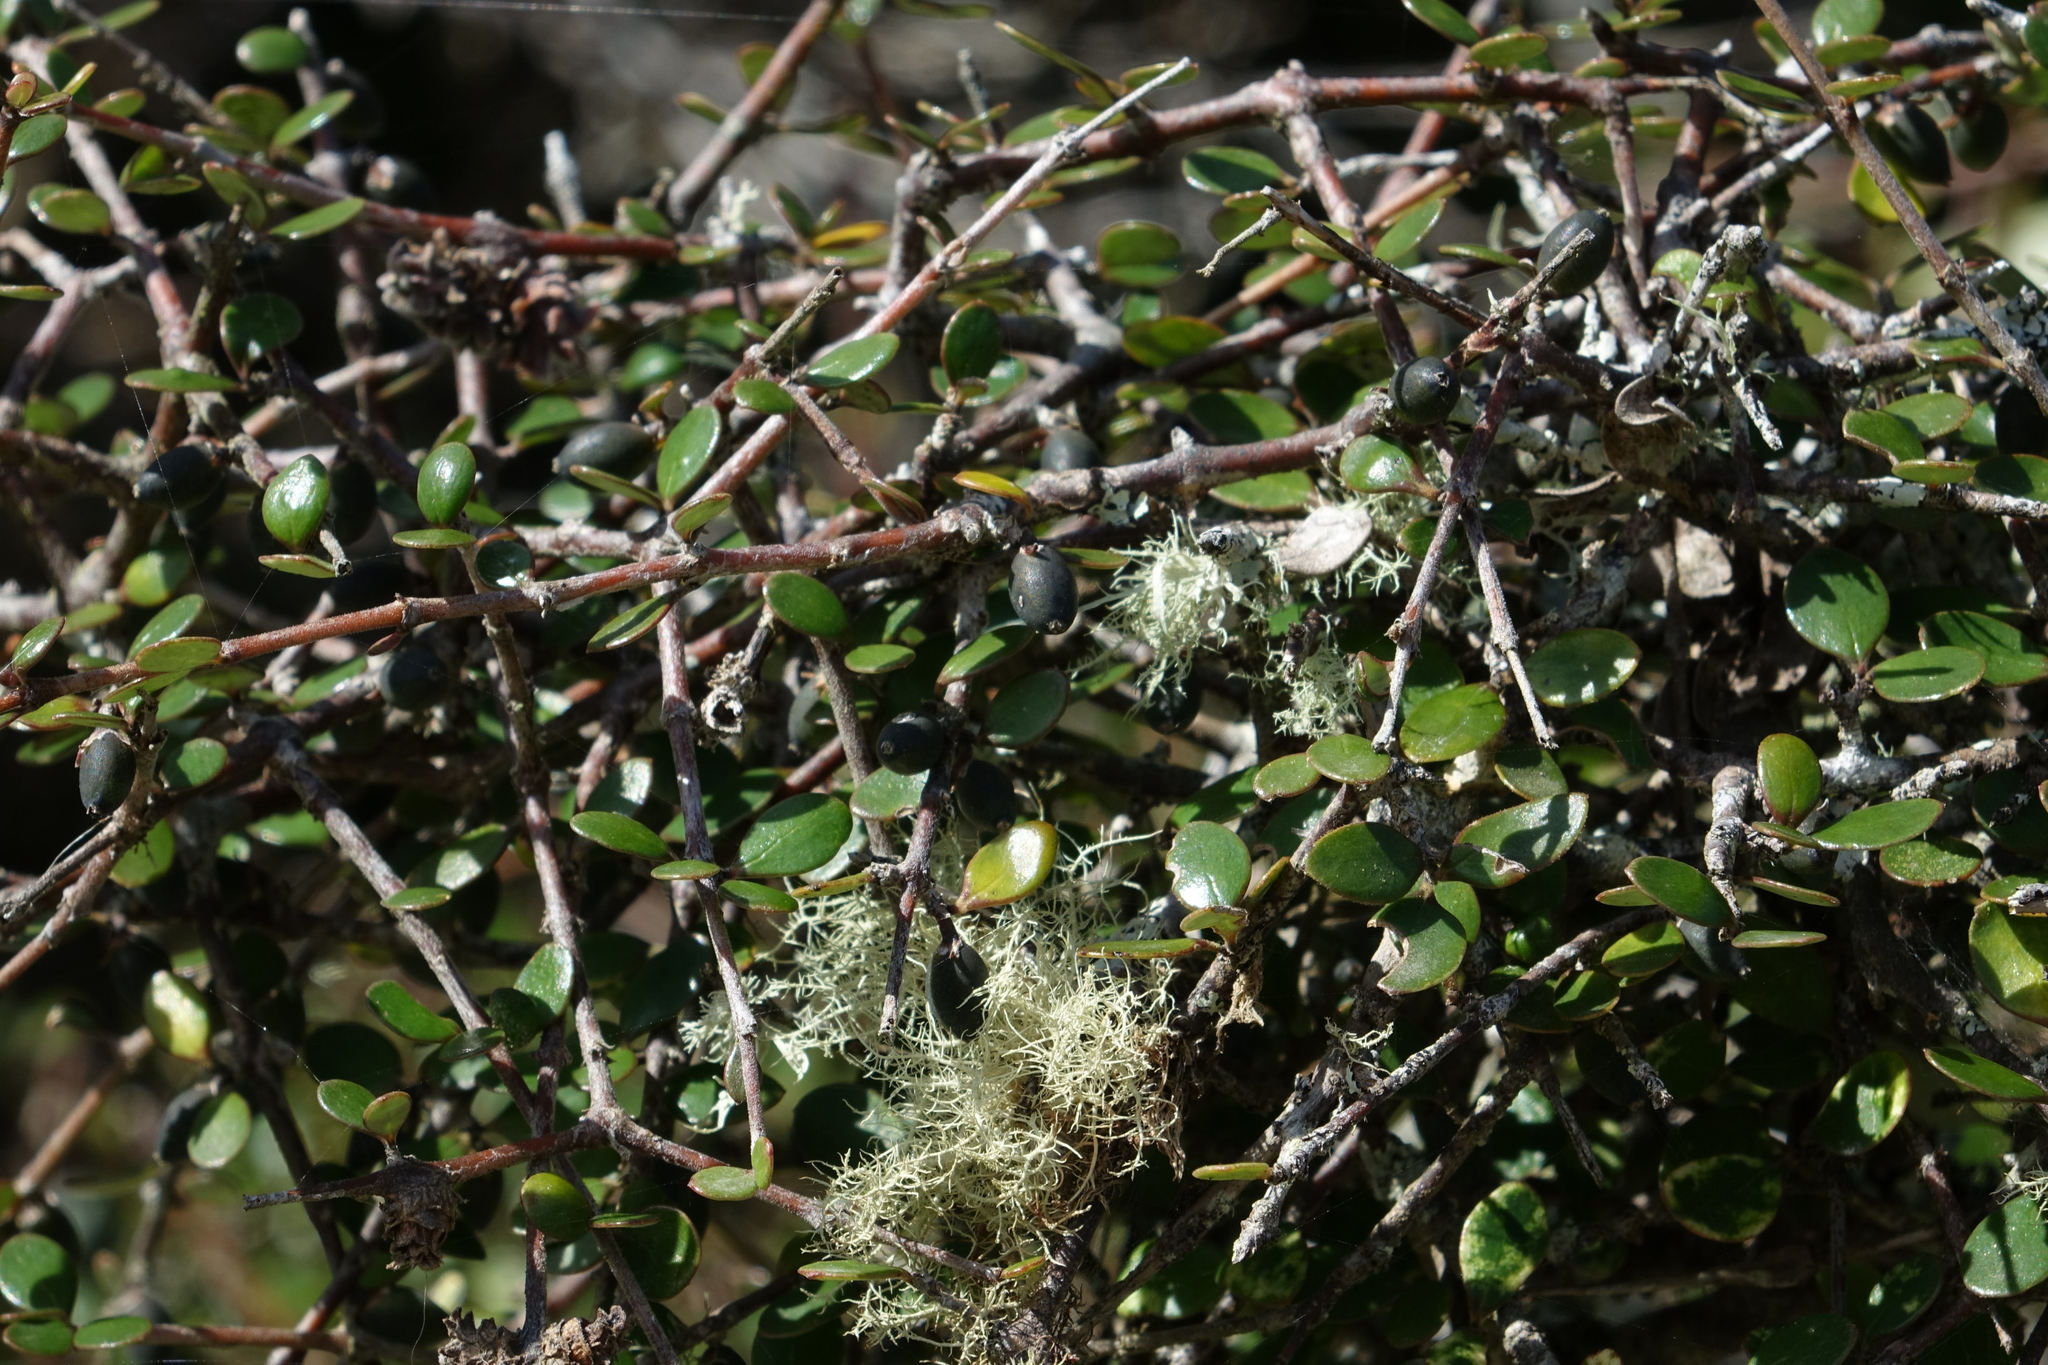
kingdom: Plantae
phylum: Tracheophyta
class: Magnoliopsida
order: Gentianales
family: Rubiaceae
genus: Coprosma
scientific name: Coprosma crassifolia
